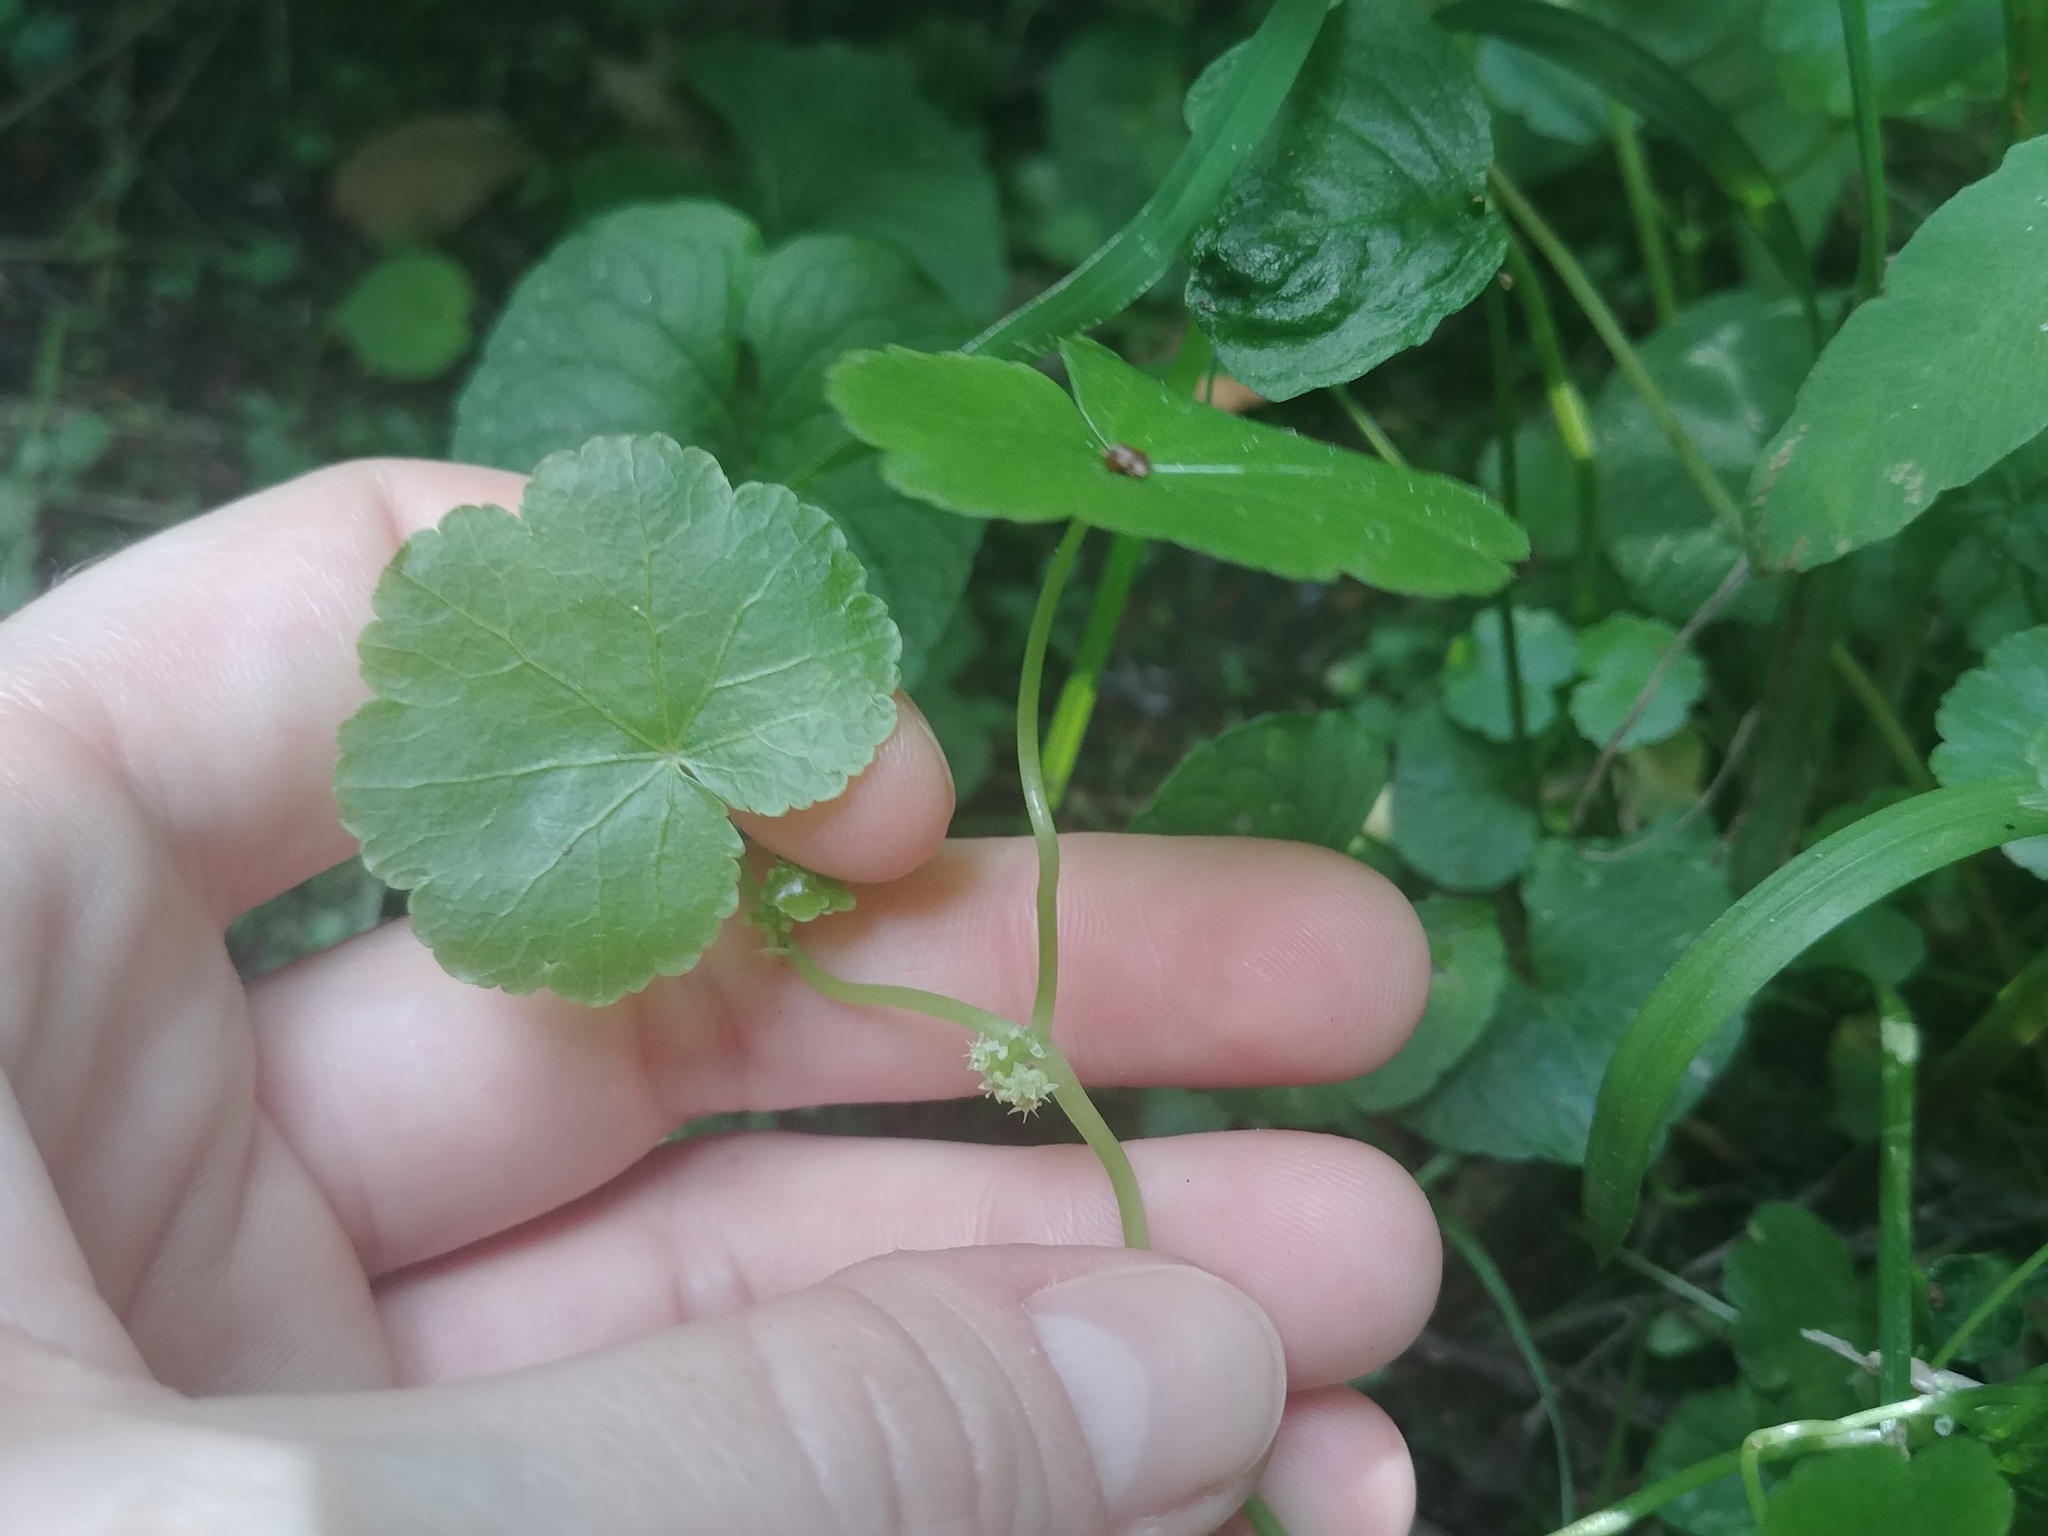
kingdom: Plantae
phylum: Tracheophyta
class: Magnoliopsida
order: Apiales
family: Araliaceae
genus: Hydrocotyle
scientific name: Hydrocotyle americana
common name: American water-pennywort
